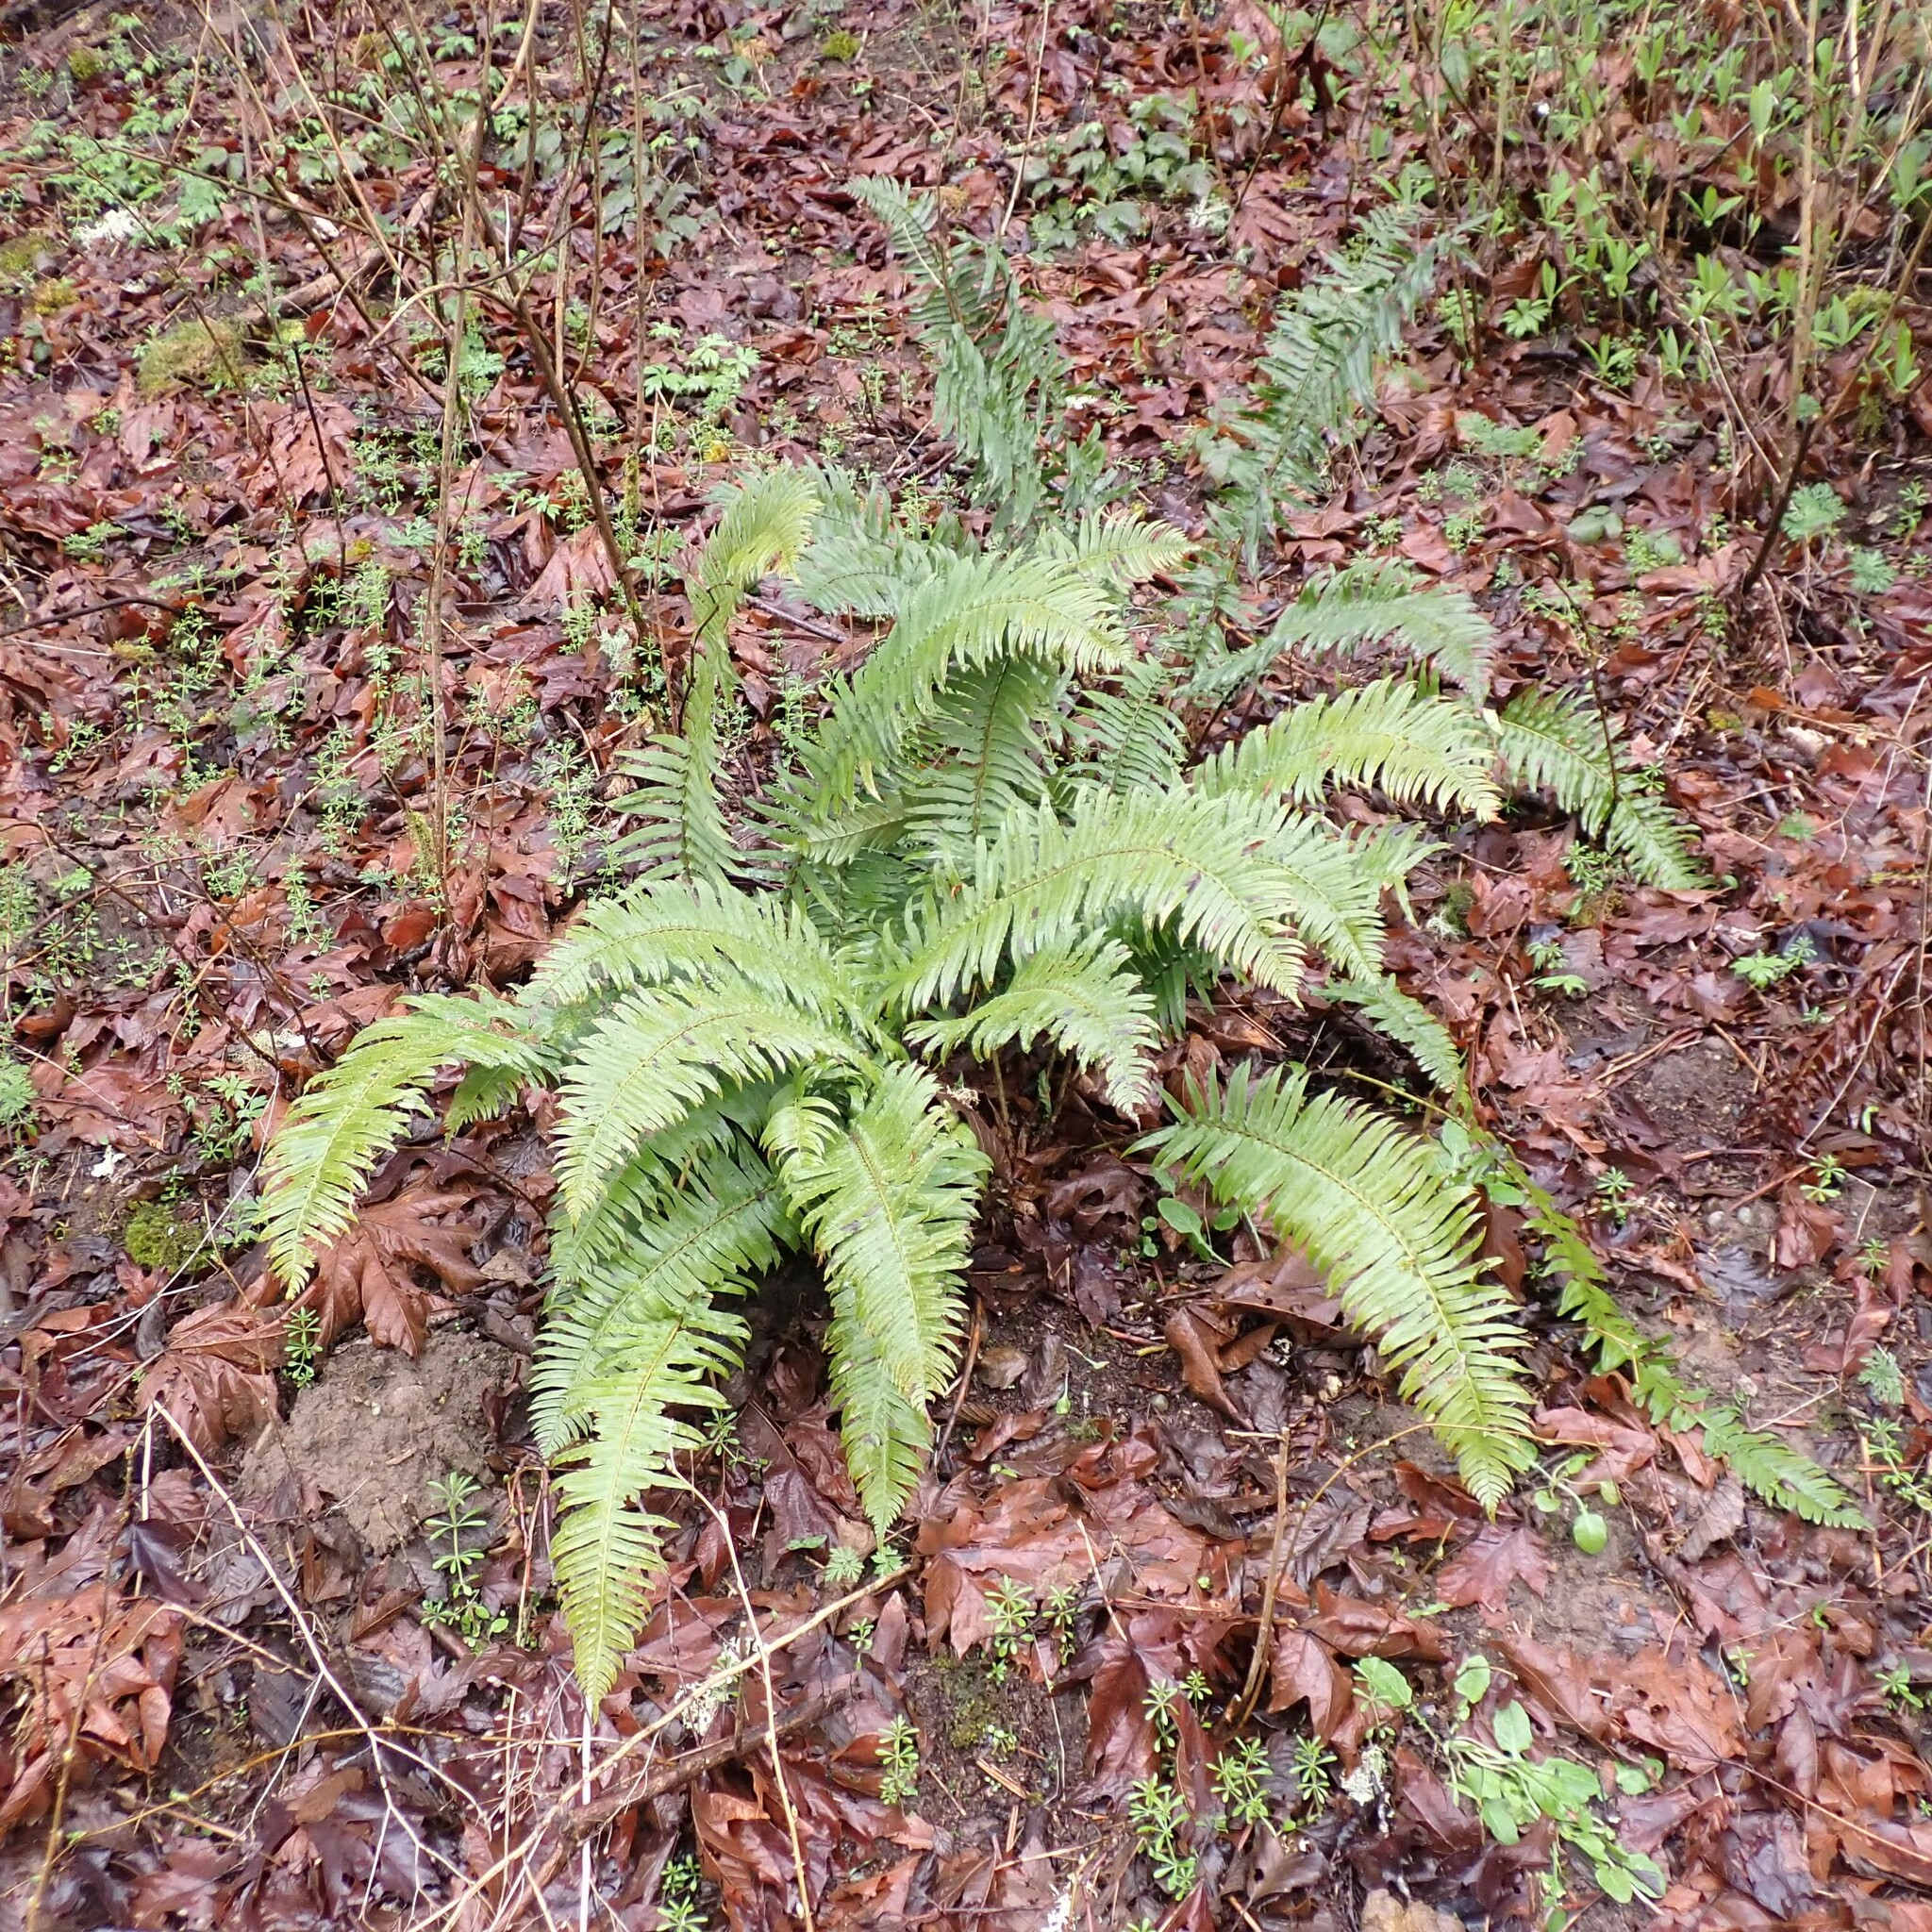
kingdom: Plantae
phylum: Tracheophyta
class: Polypodiopsida
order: Polypodiales
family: Dryopteridaceae
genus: Polystichum
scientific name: Polystichum munitum
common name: Western sword-fern
